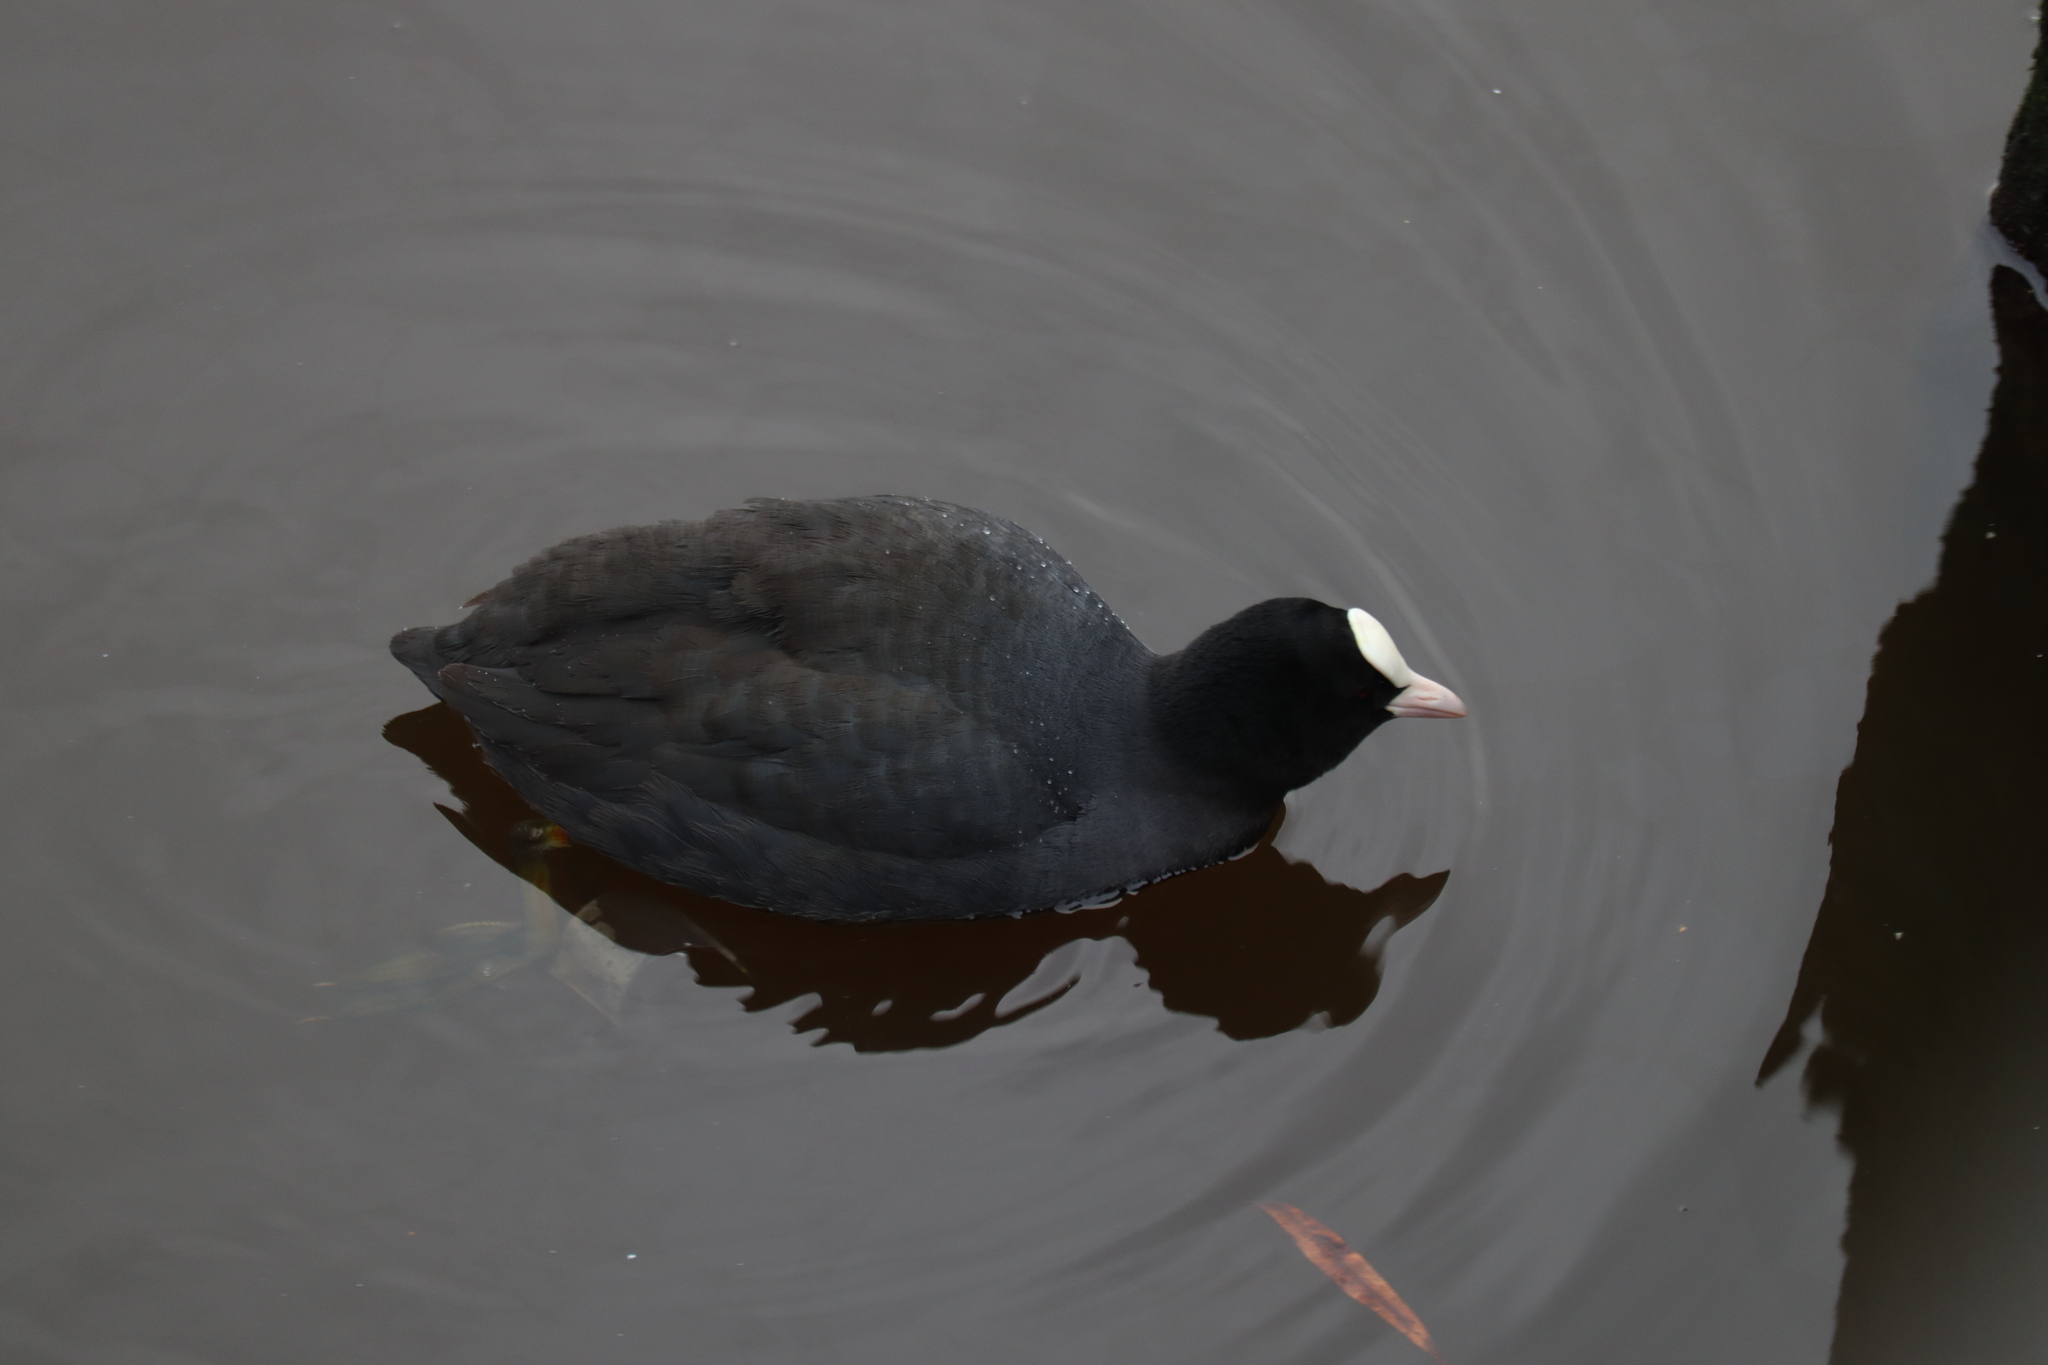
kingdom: Animalia
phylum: Chordata
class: Aves
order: Gruiformes
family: Rallidae
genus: Fulica
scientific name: Fulica atra
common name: Eurasian coot
